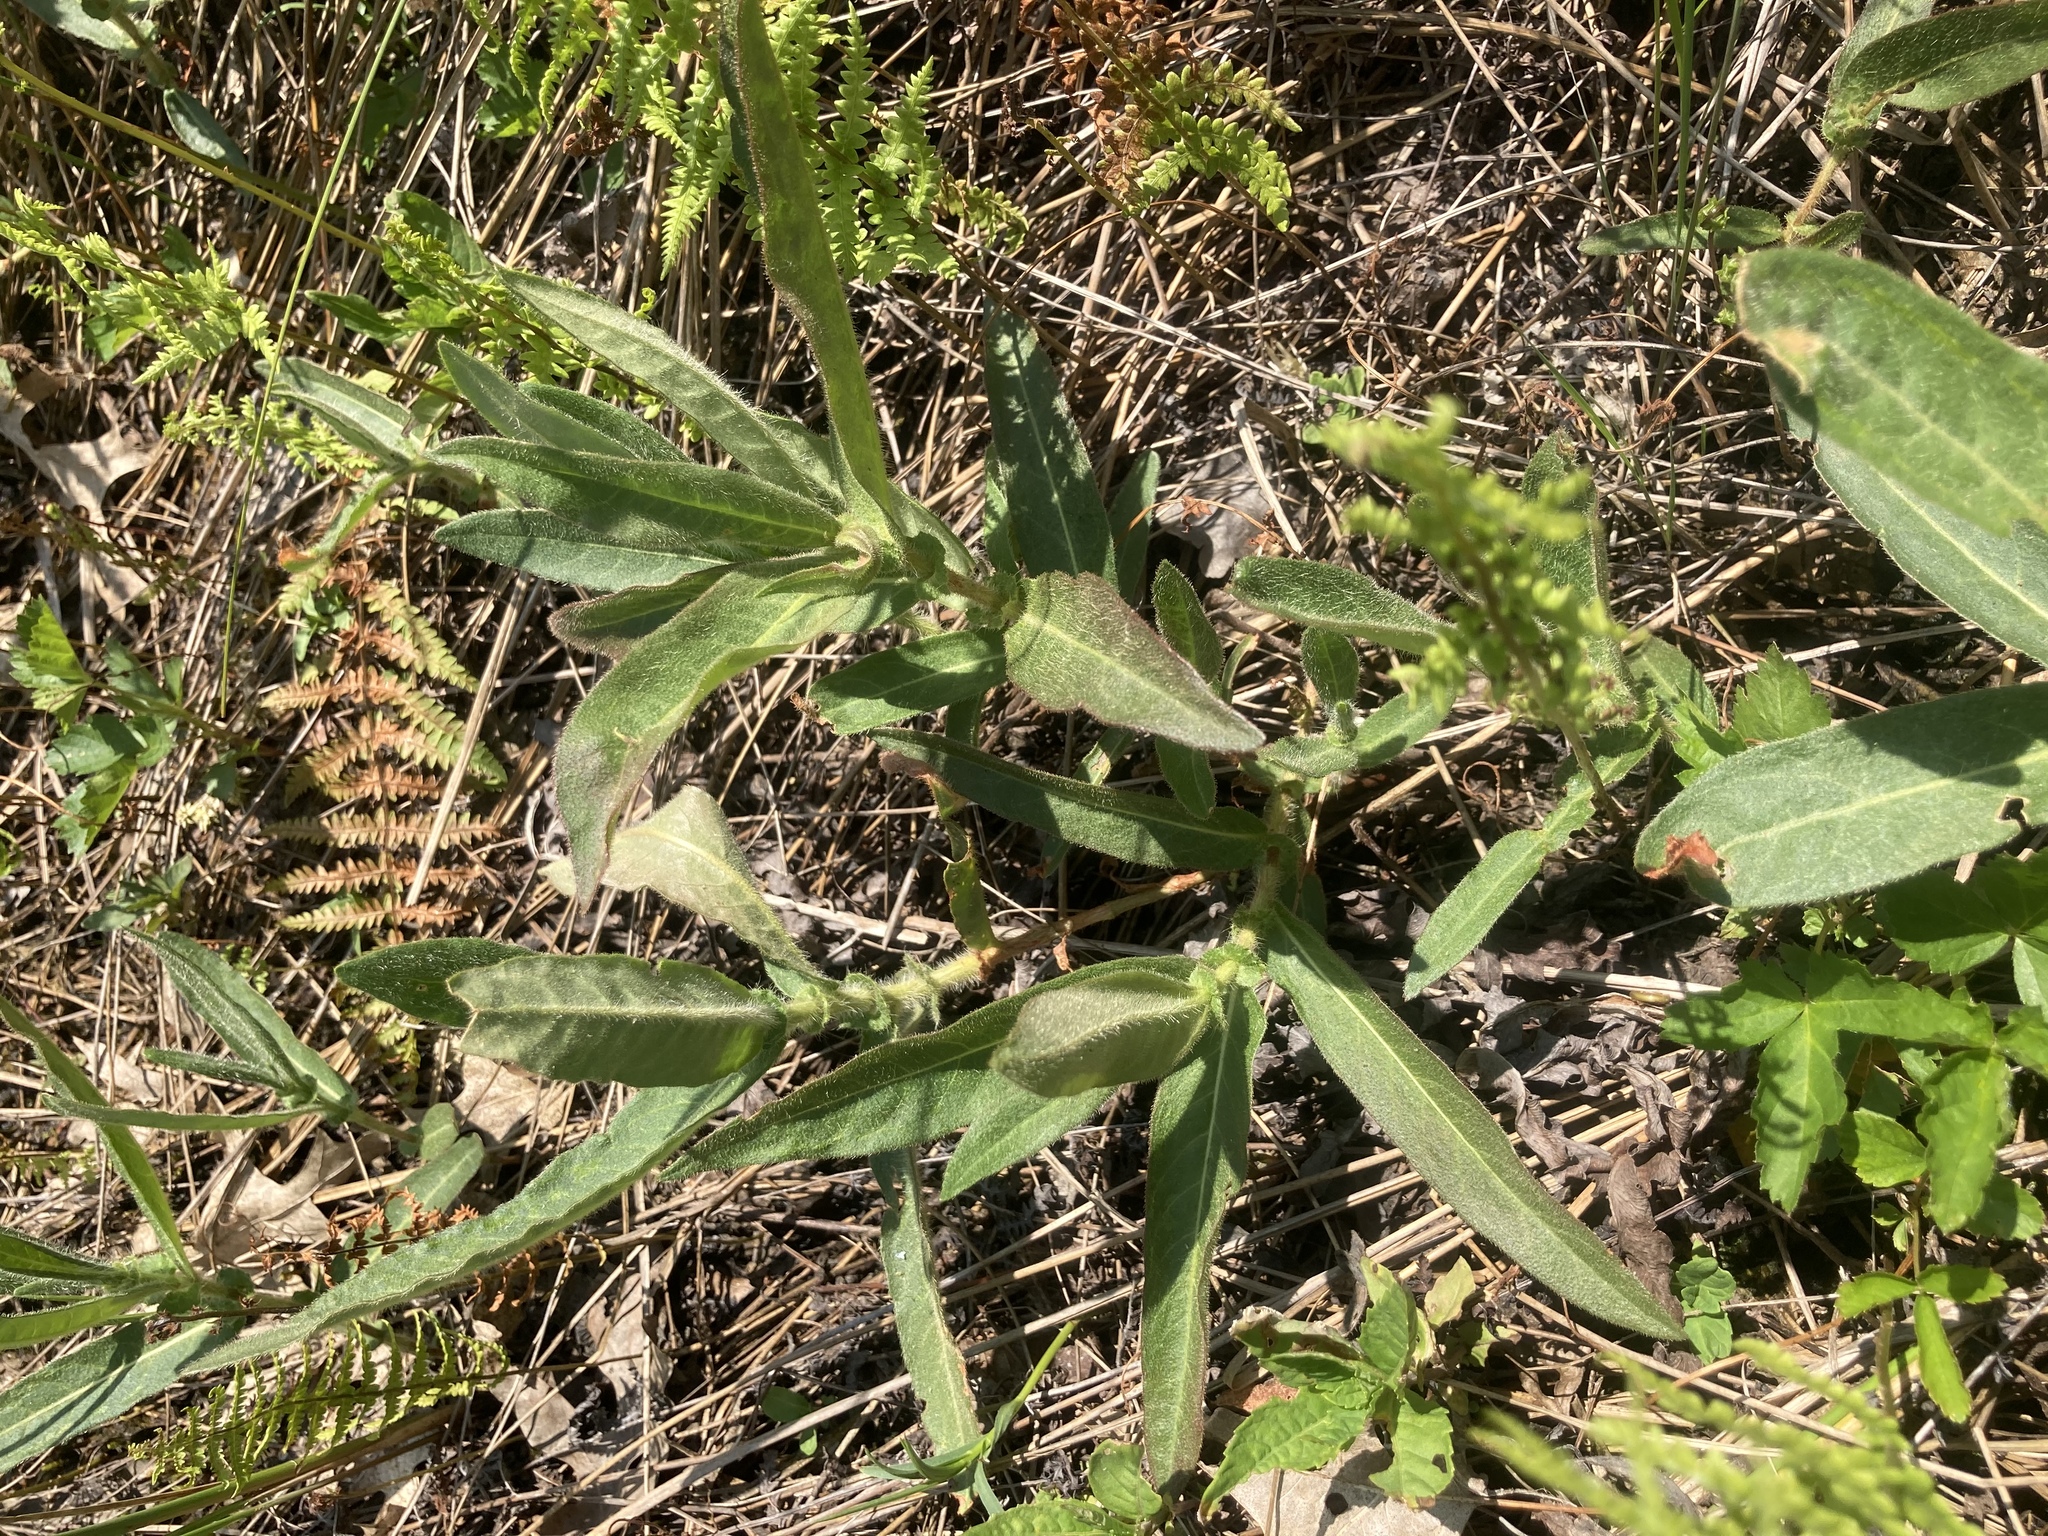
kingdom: Plantae
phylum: Tracheophyta
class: Magnoliopsida
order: Caryophyllales
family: Polygonaceae
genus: Persicaria
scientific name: Persicaria amphibia
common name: Amphibious bistort
